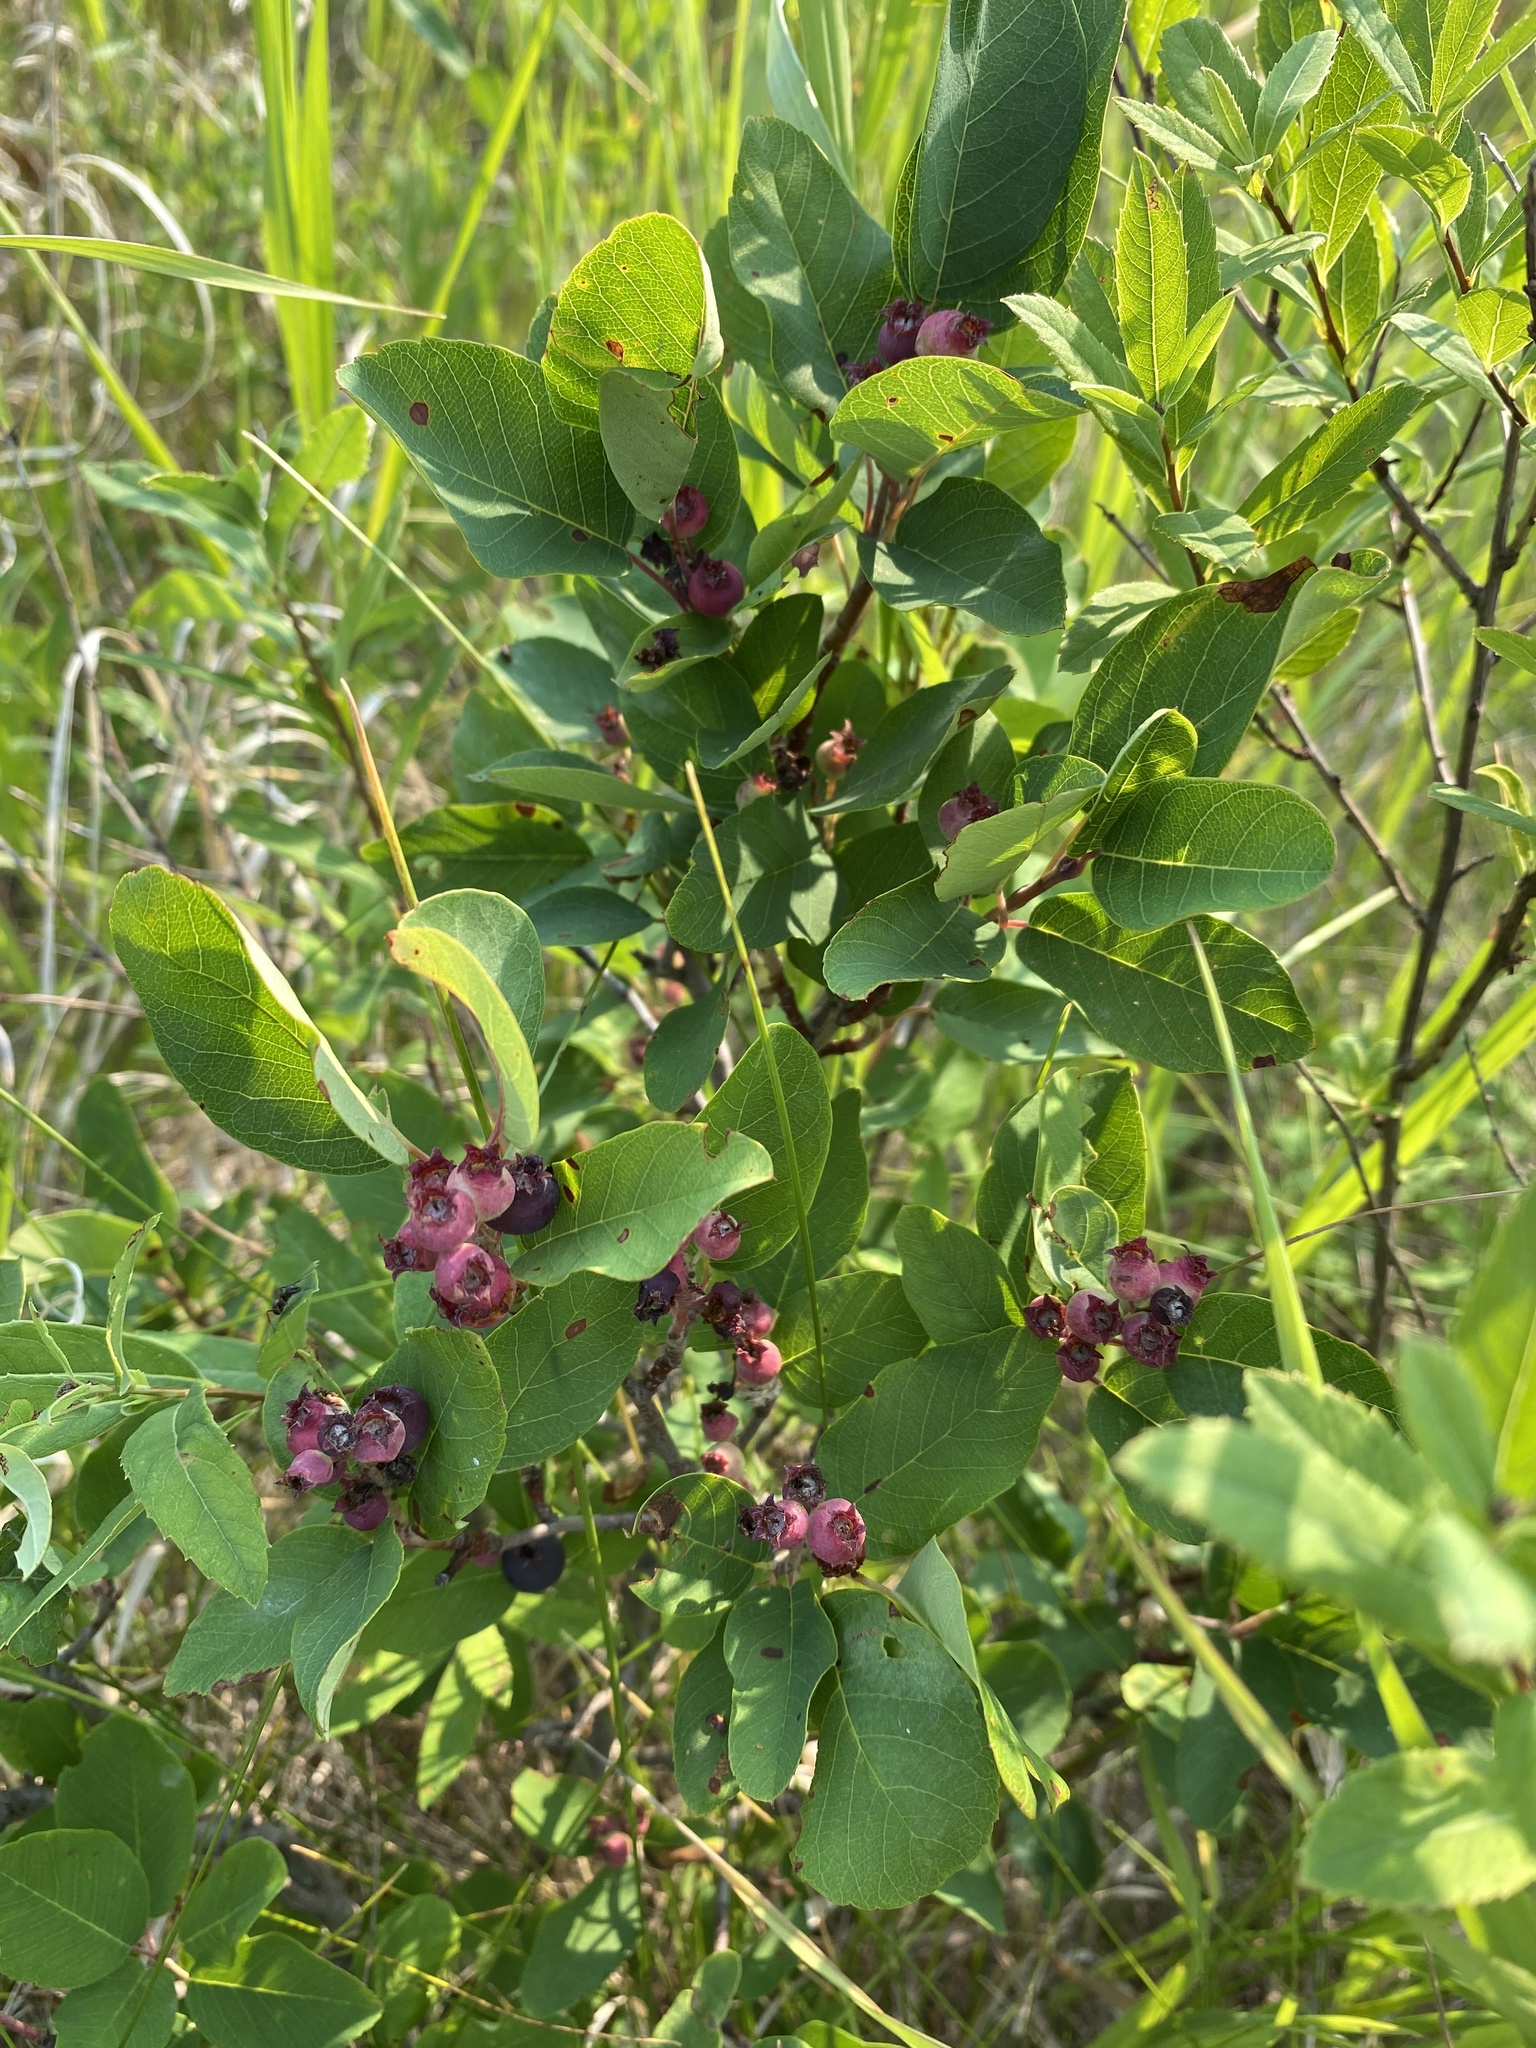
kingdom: Plantae
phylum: Tracheophyta
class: Magnoliopsida
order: Rosales
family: Rosaceae
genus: Amelanchier
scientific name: Amelanchier alnifolia
